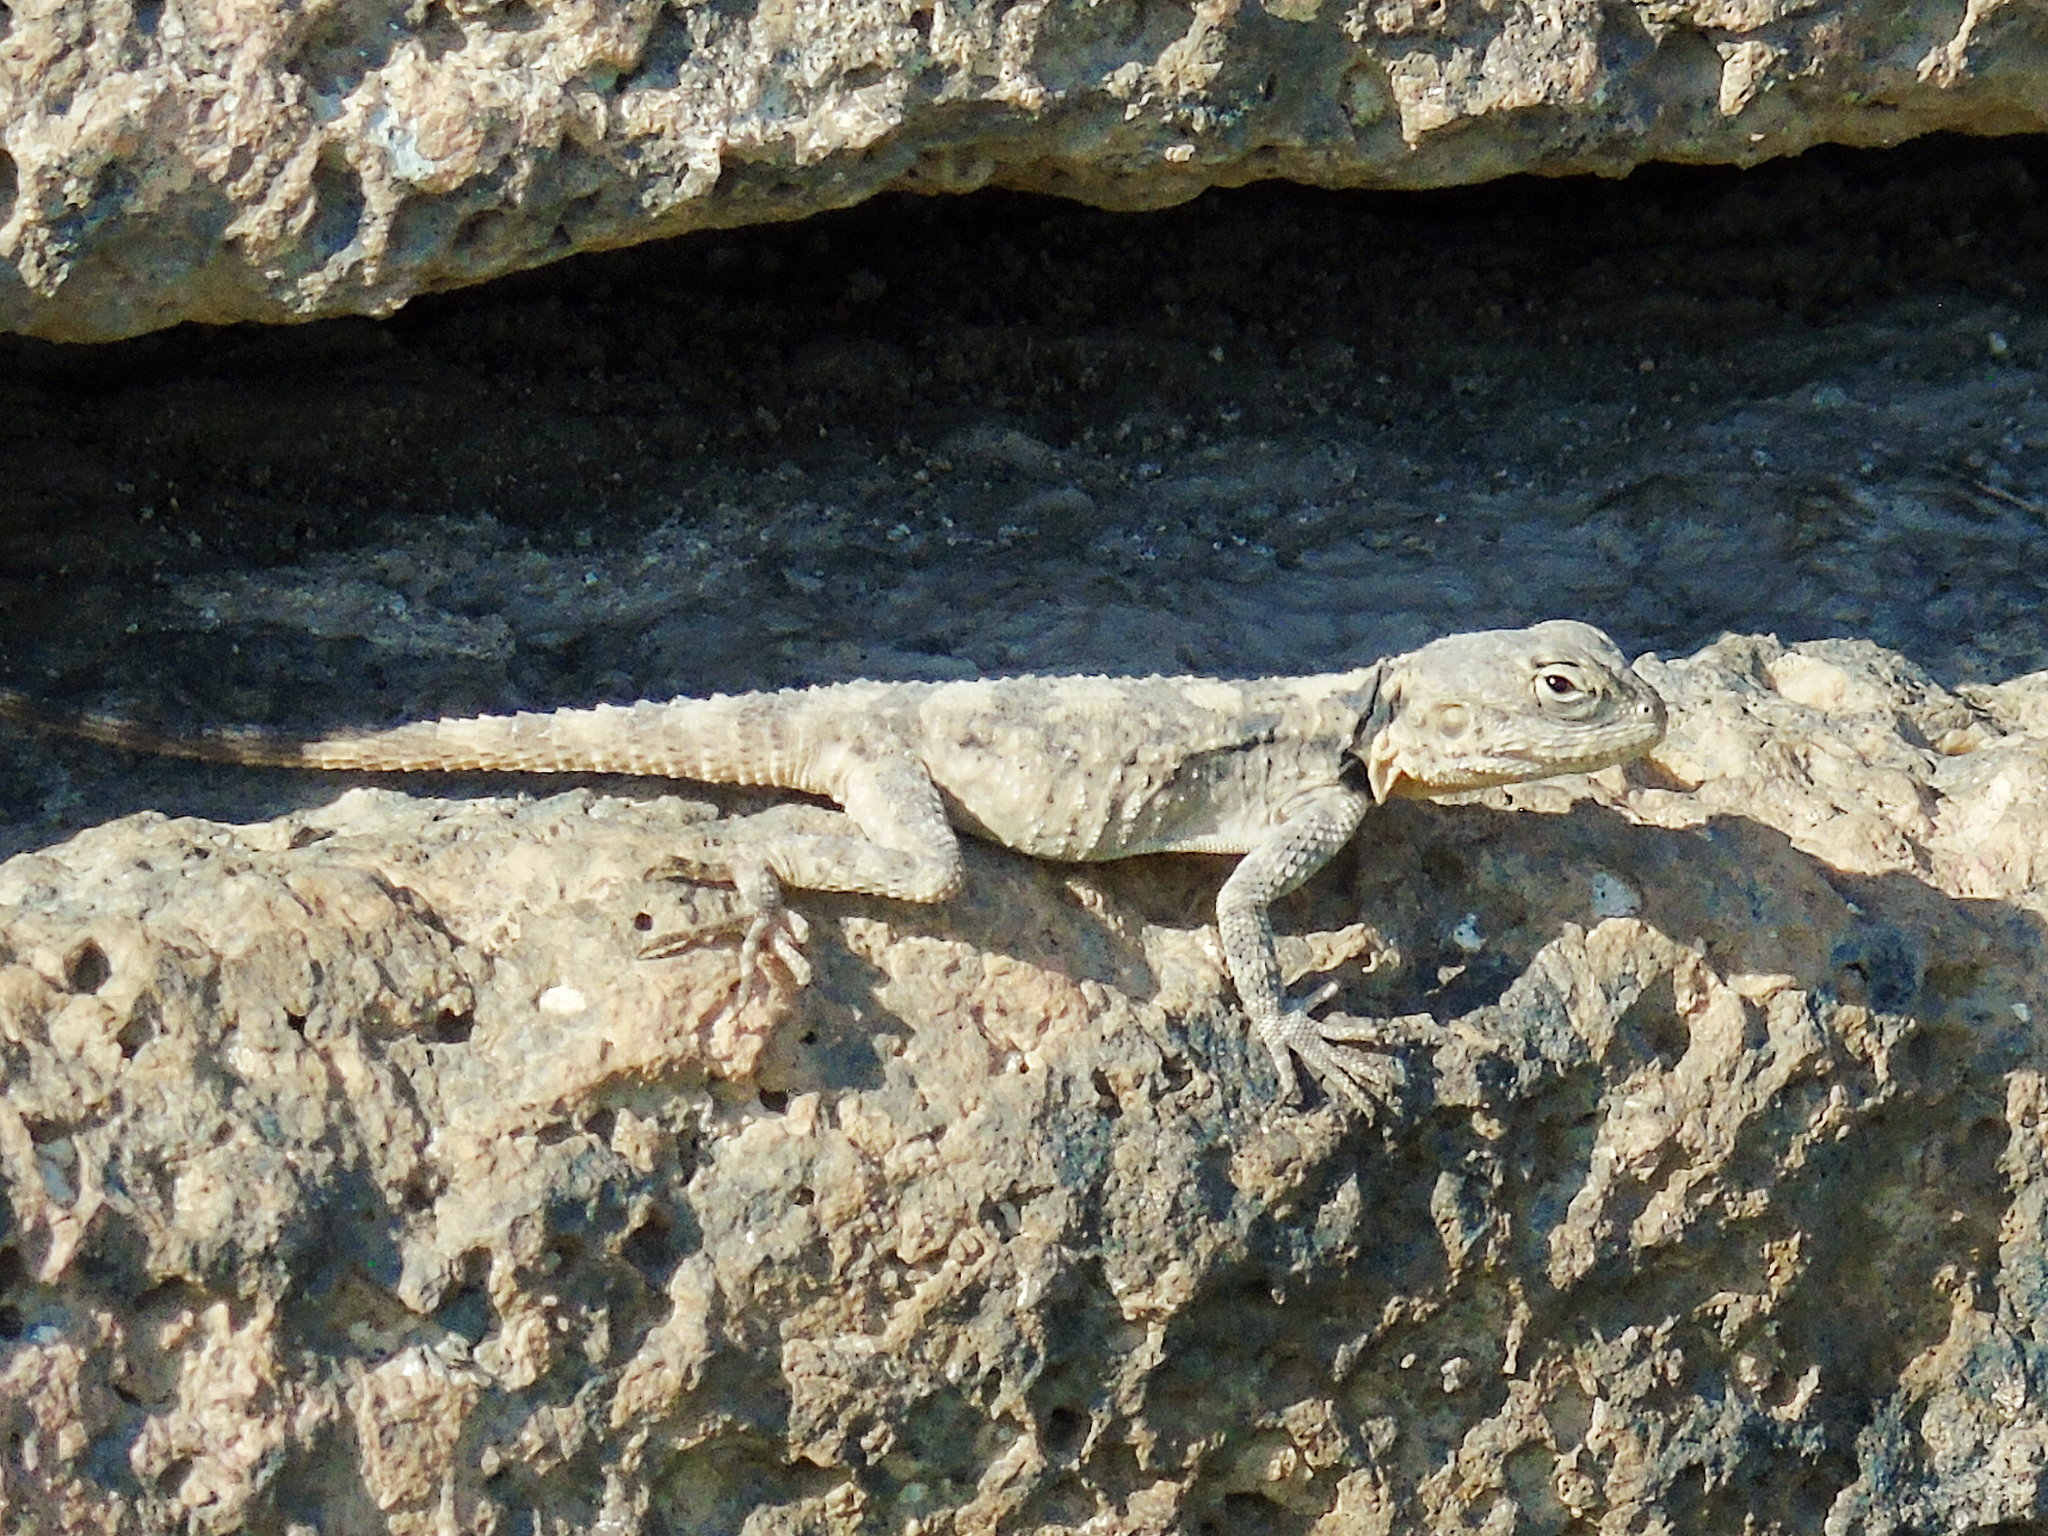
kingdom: Animalia
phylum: Chordata
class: Squamata
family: Agamidae
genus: Stellagama
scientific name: Stellagama stellio
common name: Starred agama
